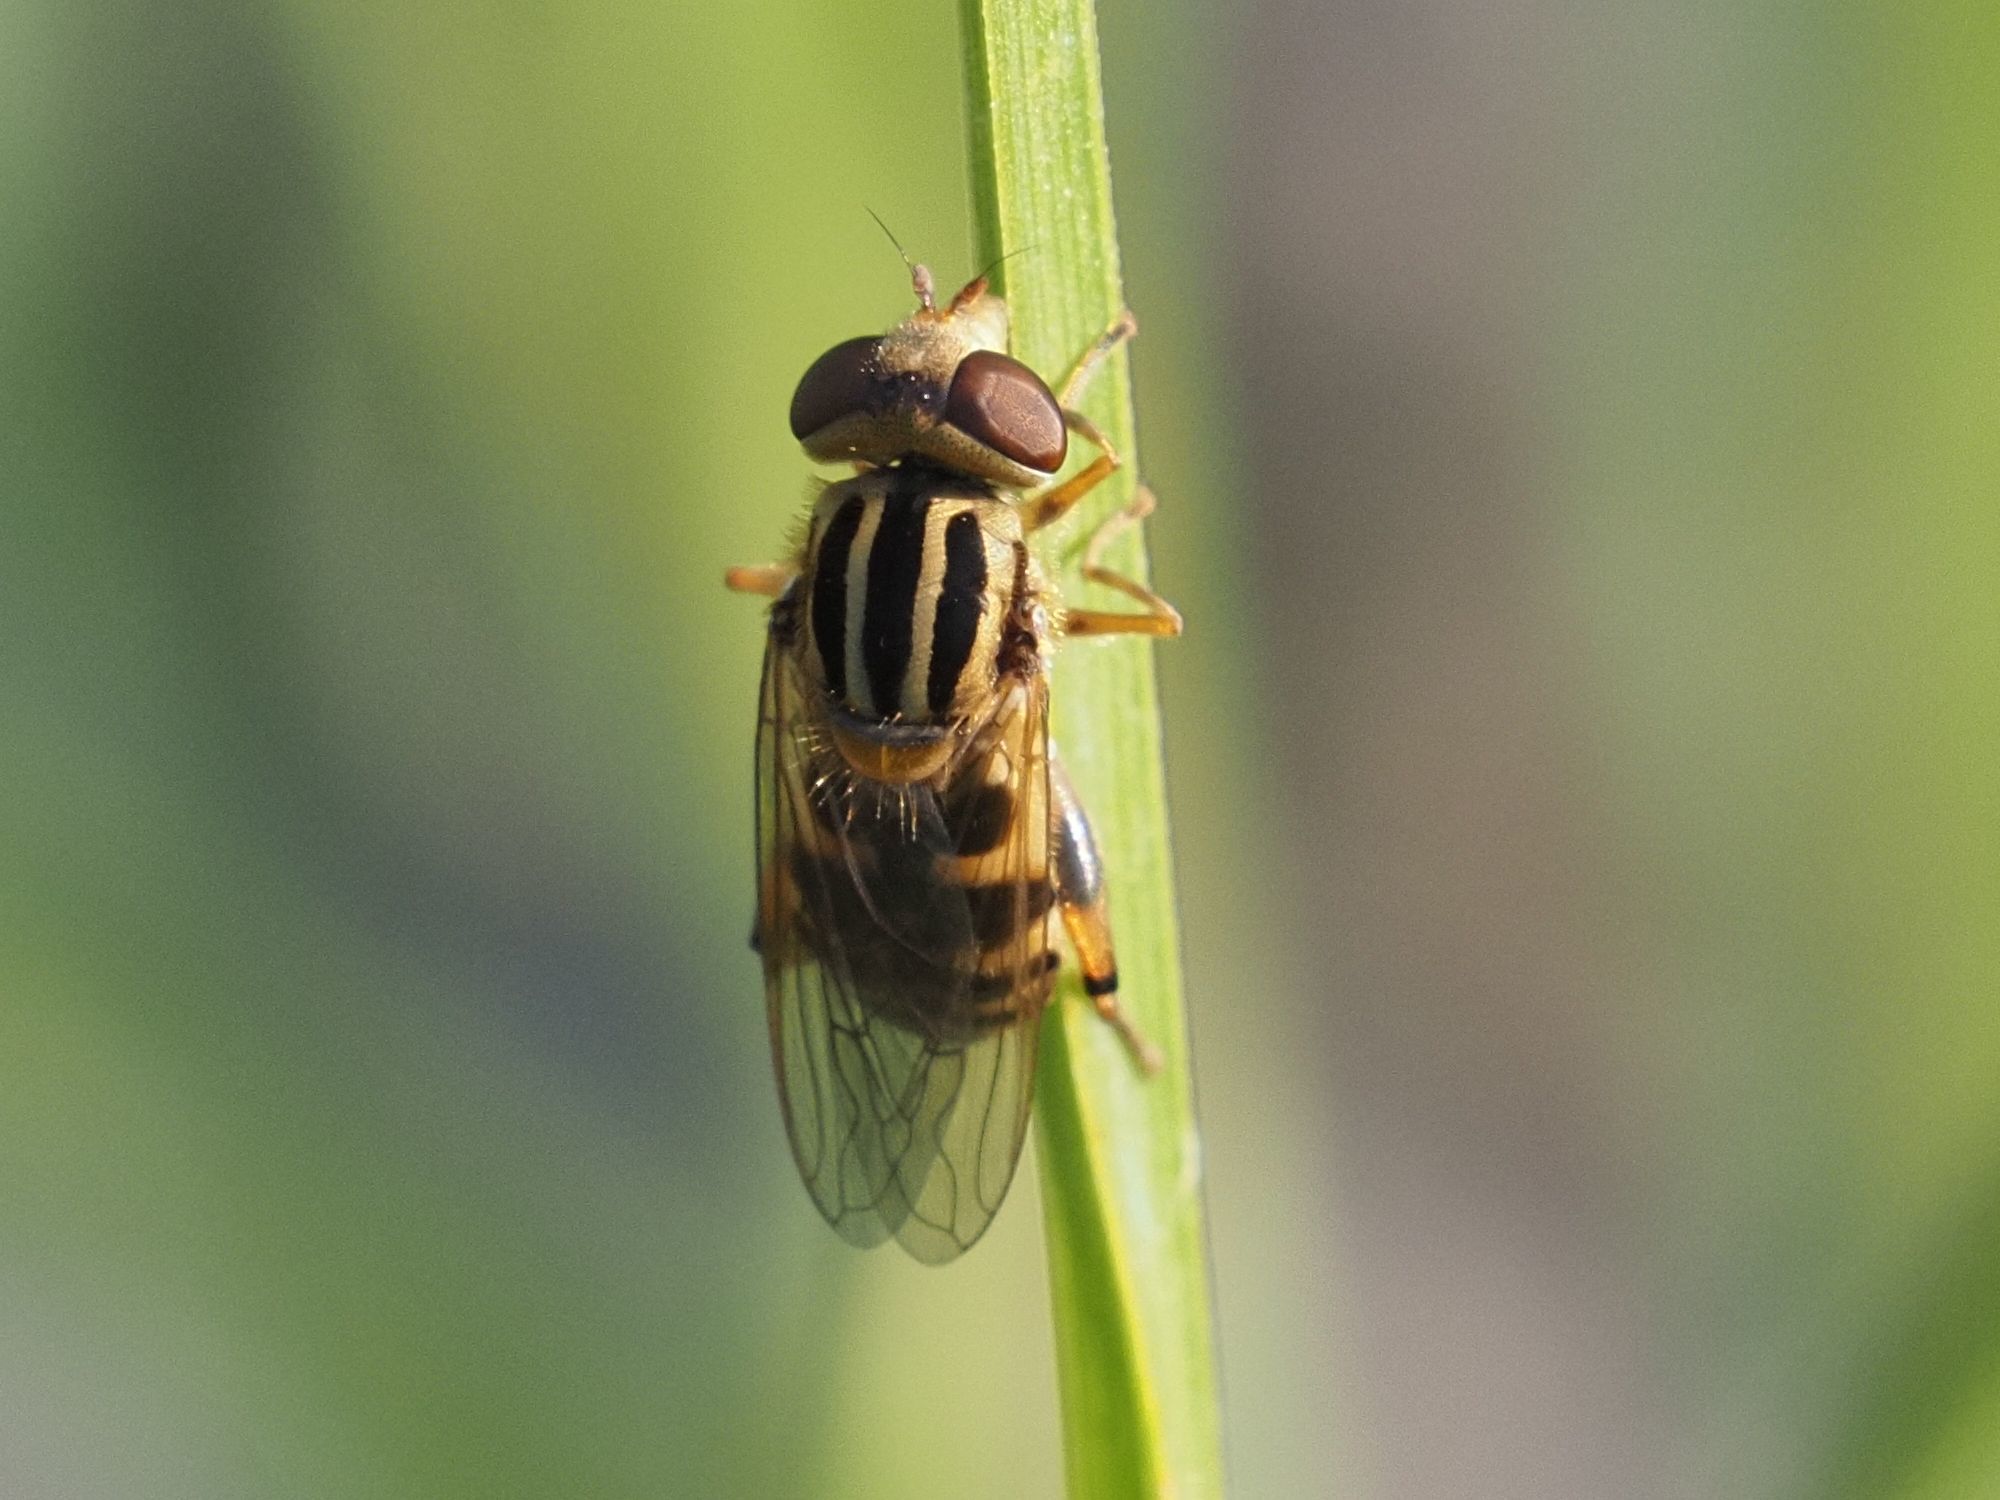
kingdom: Animalia
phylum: Arthropoda
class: Insecta
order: Diptera
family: Syrphidae
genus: Eurimyia
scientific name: Eurimyia lineatus
